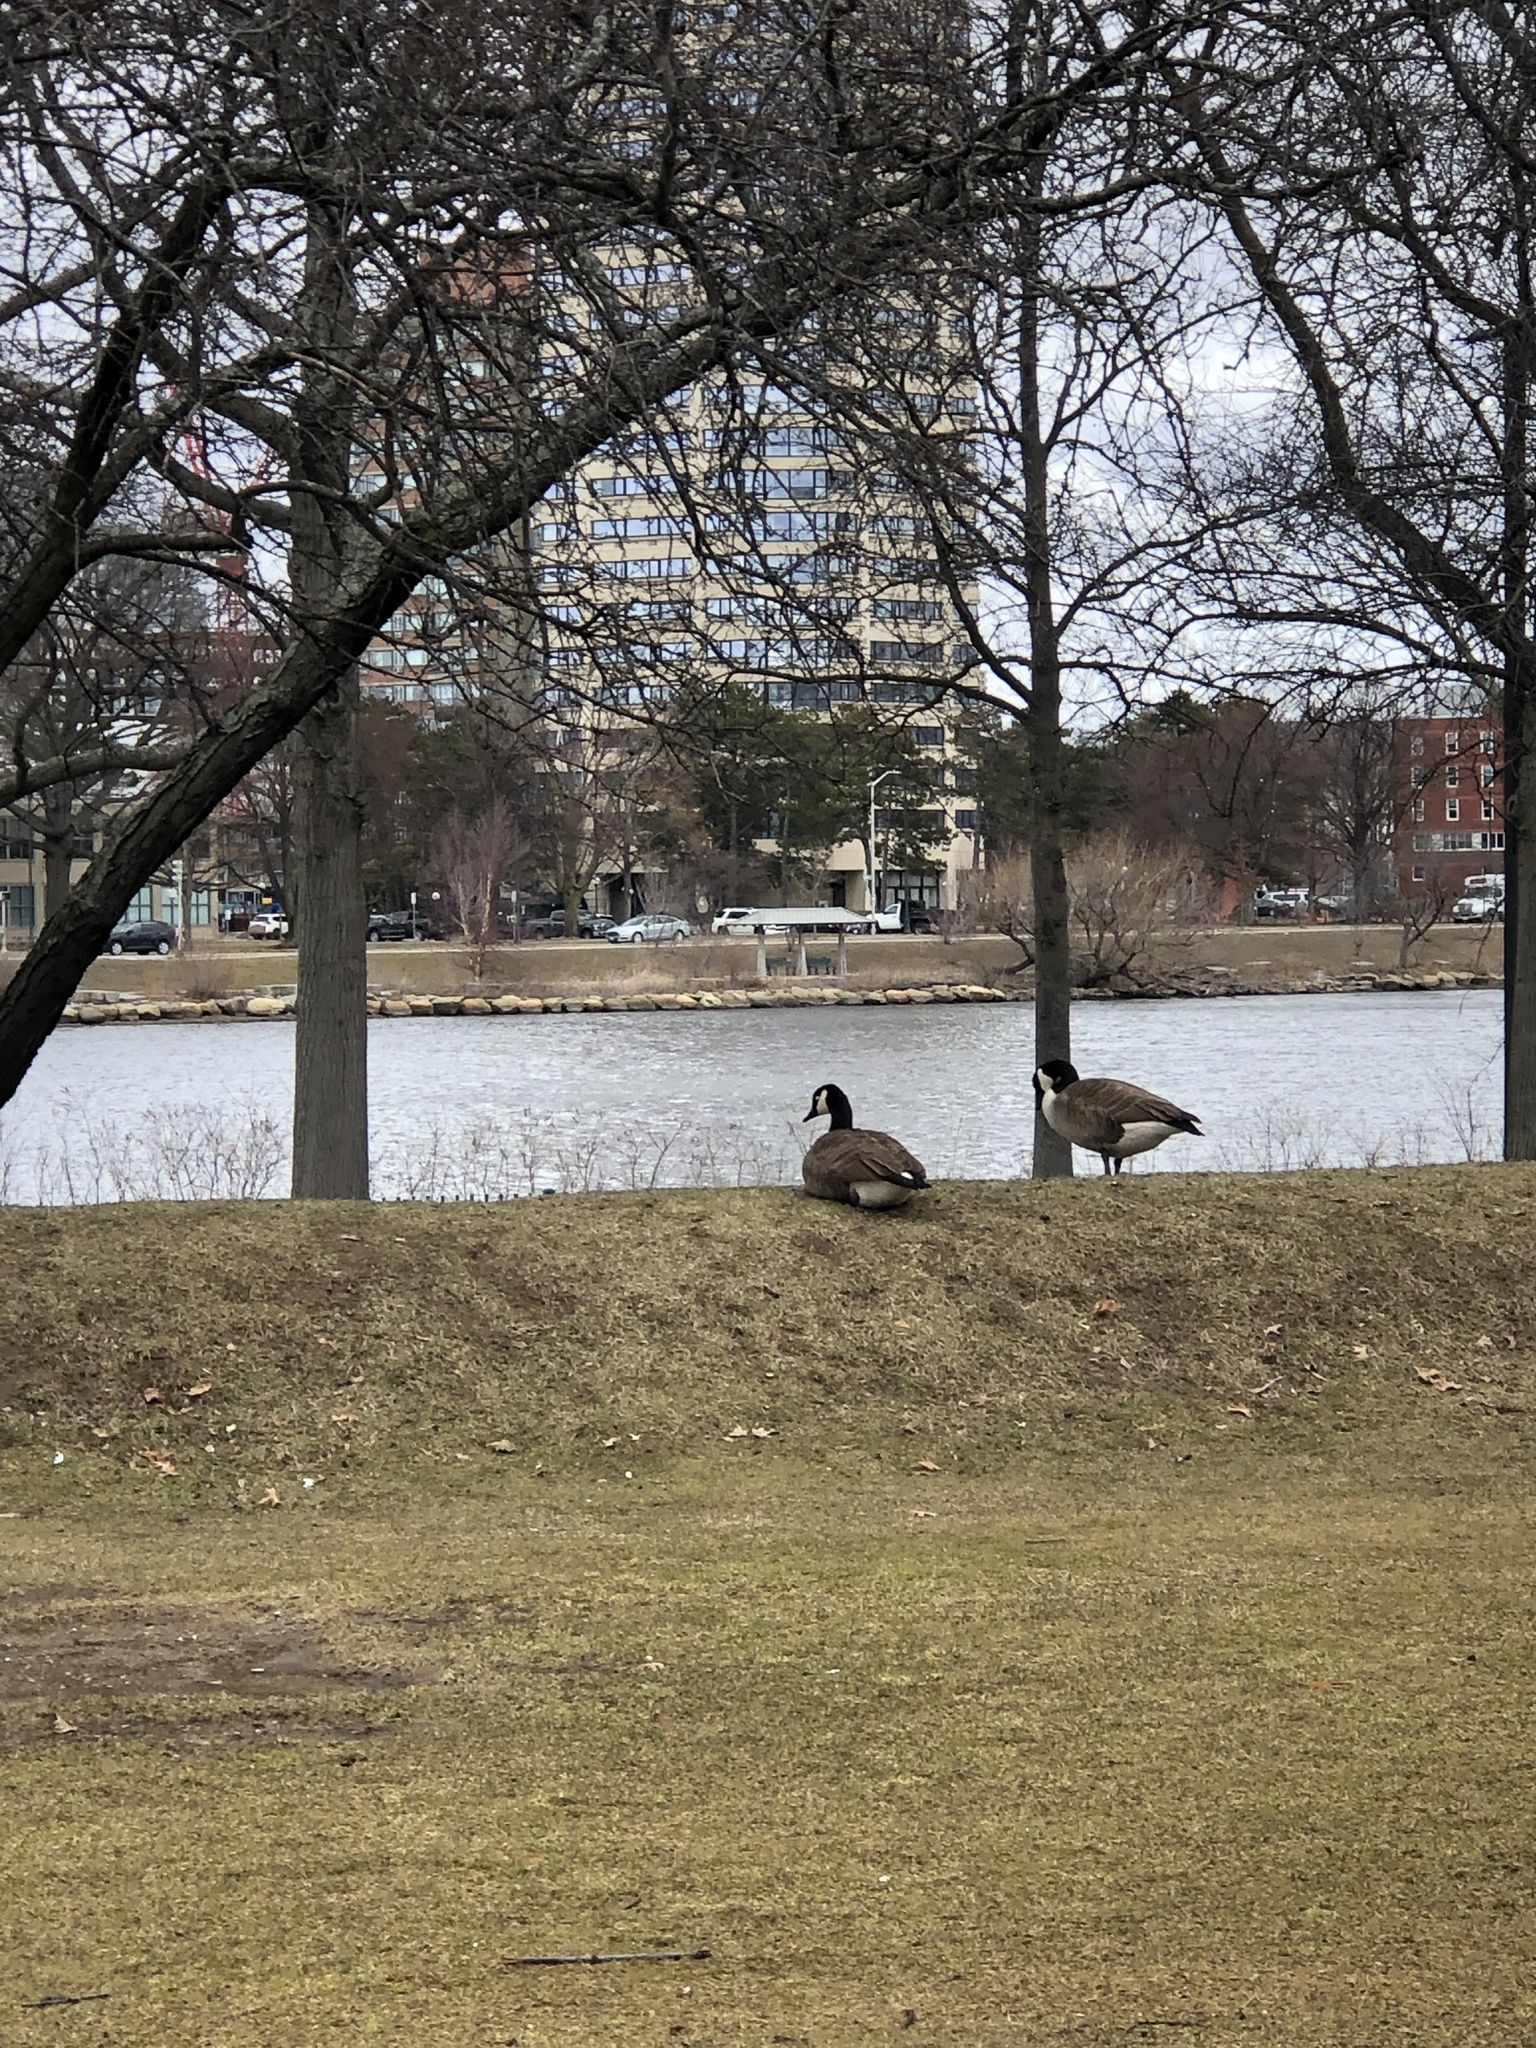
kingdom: Animalia
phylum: Chordata
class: Aves
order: Anseriformes
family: Anatidae
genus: Branta
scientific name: Branta canadensis
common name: Canada goose
